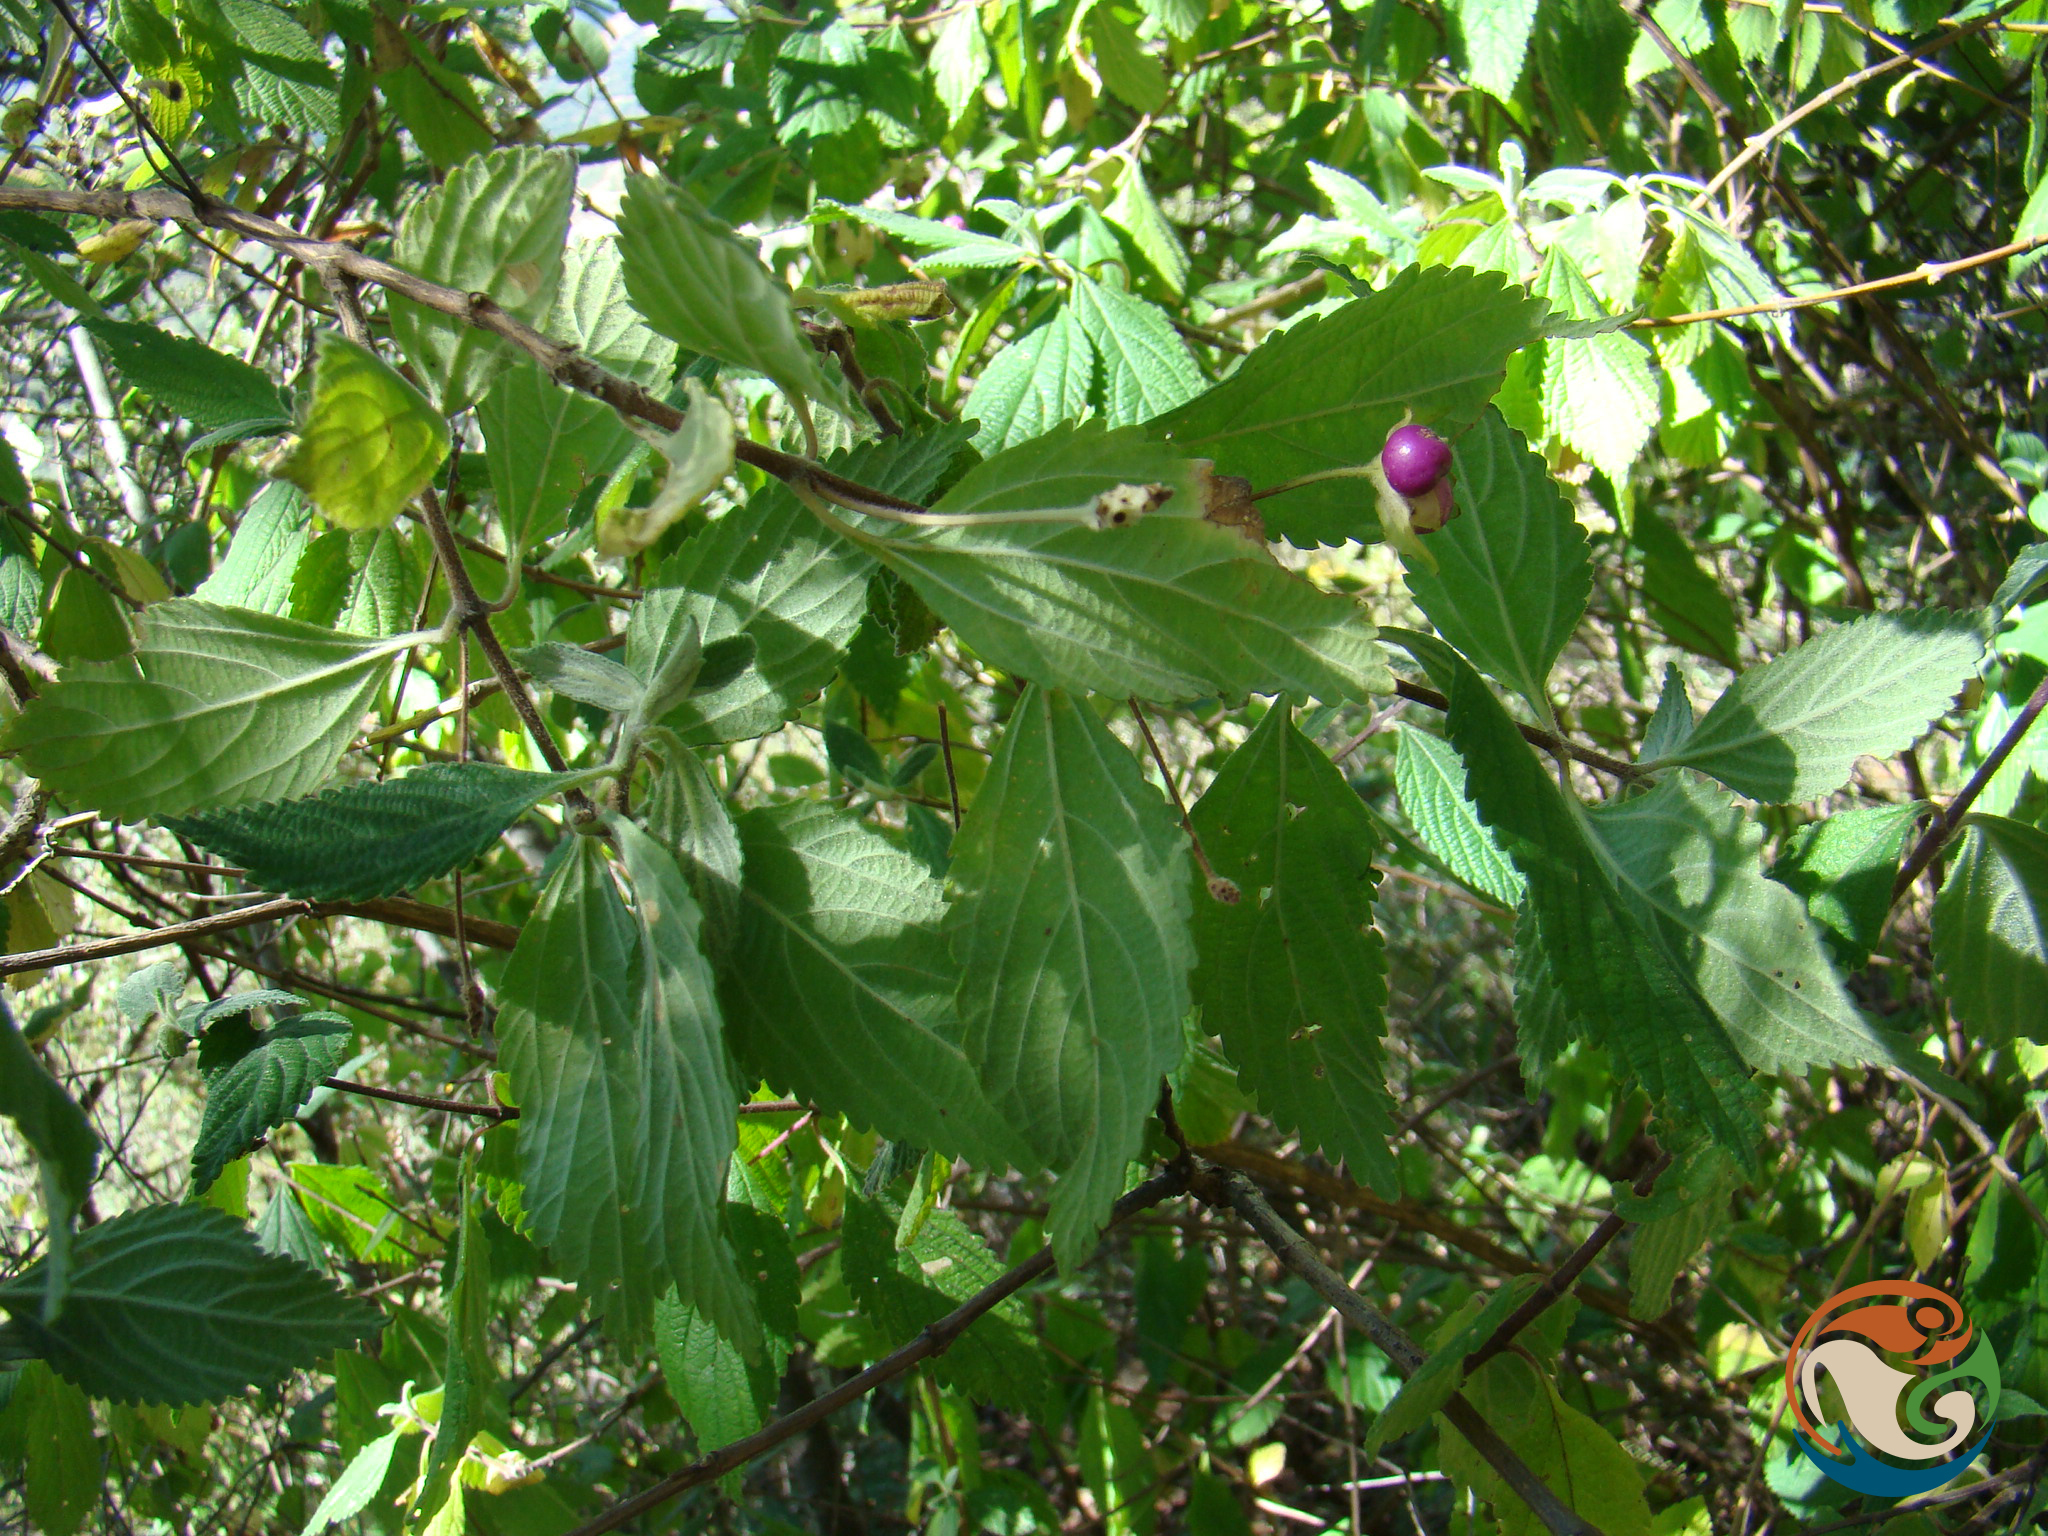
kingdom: Plantae
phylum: Tracheophyta
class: Magnoliopsida
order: Lamiales
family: Verbenaceae
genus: Lantana
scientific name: Lantana achyranthifolia
